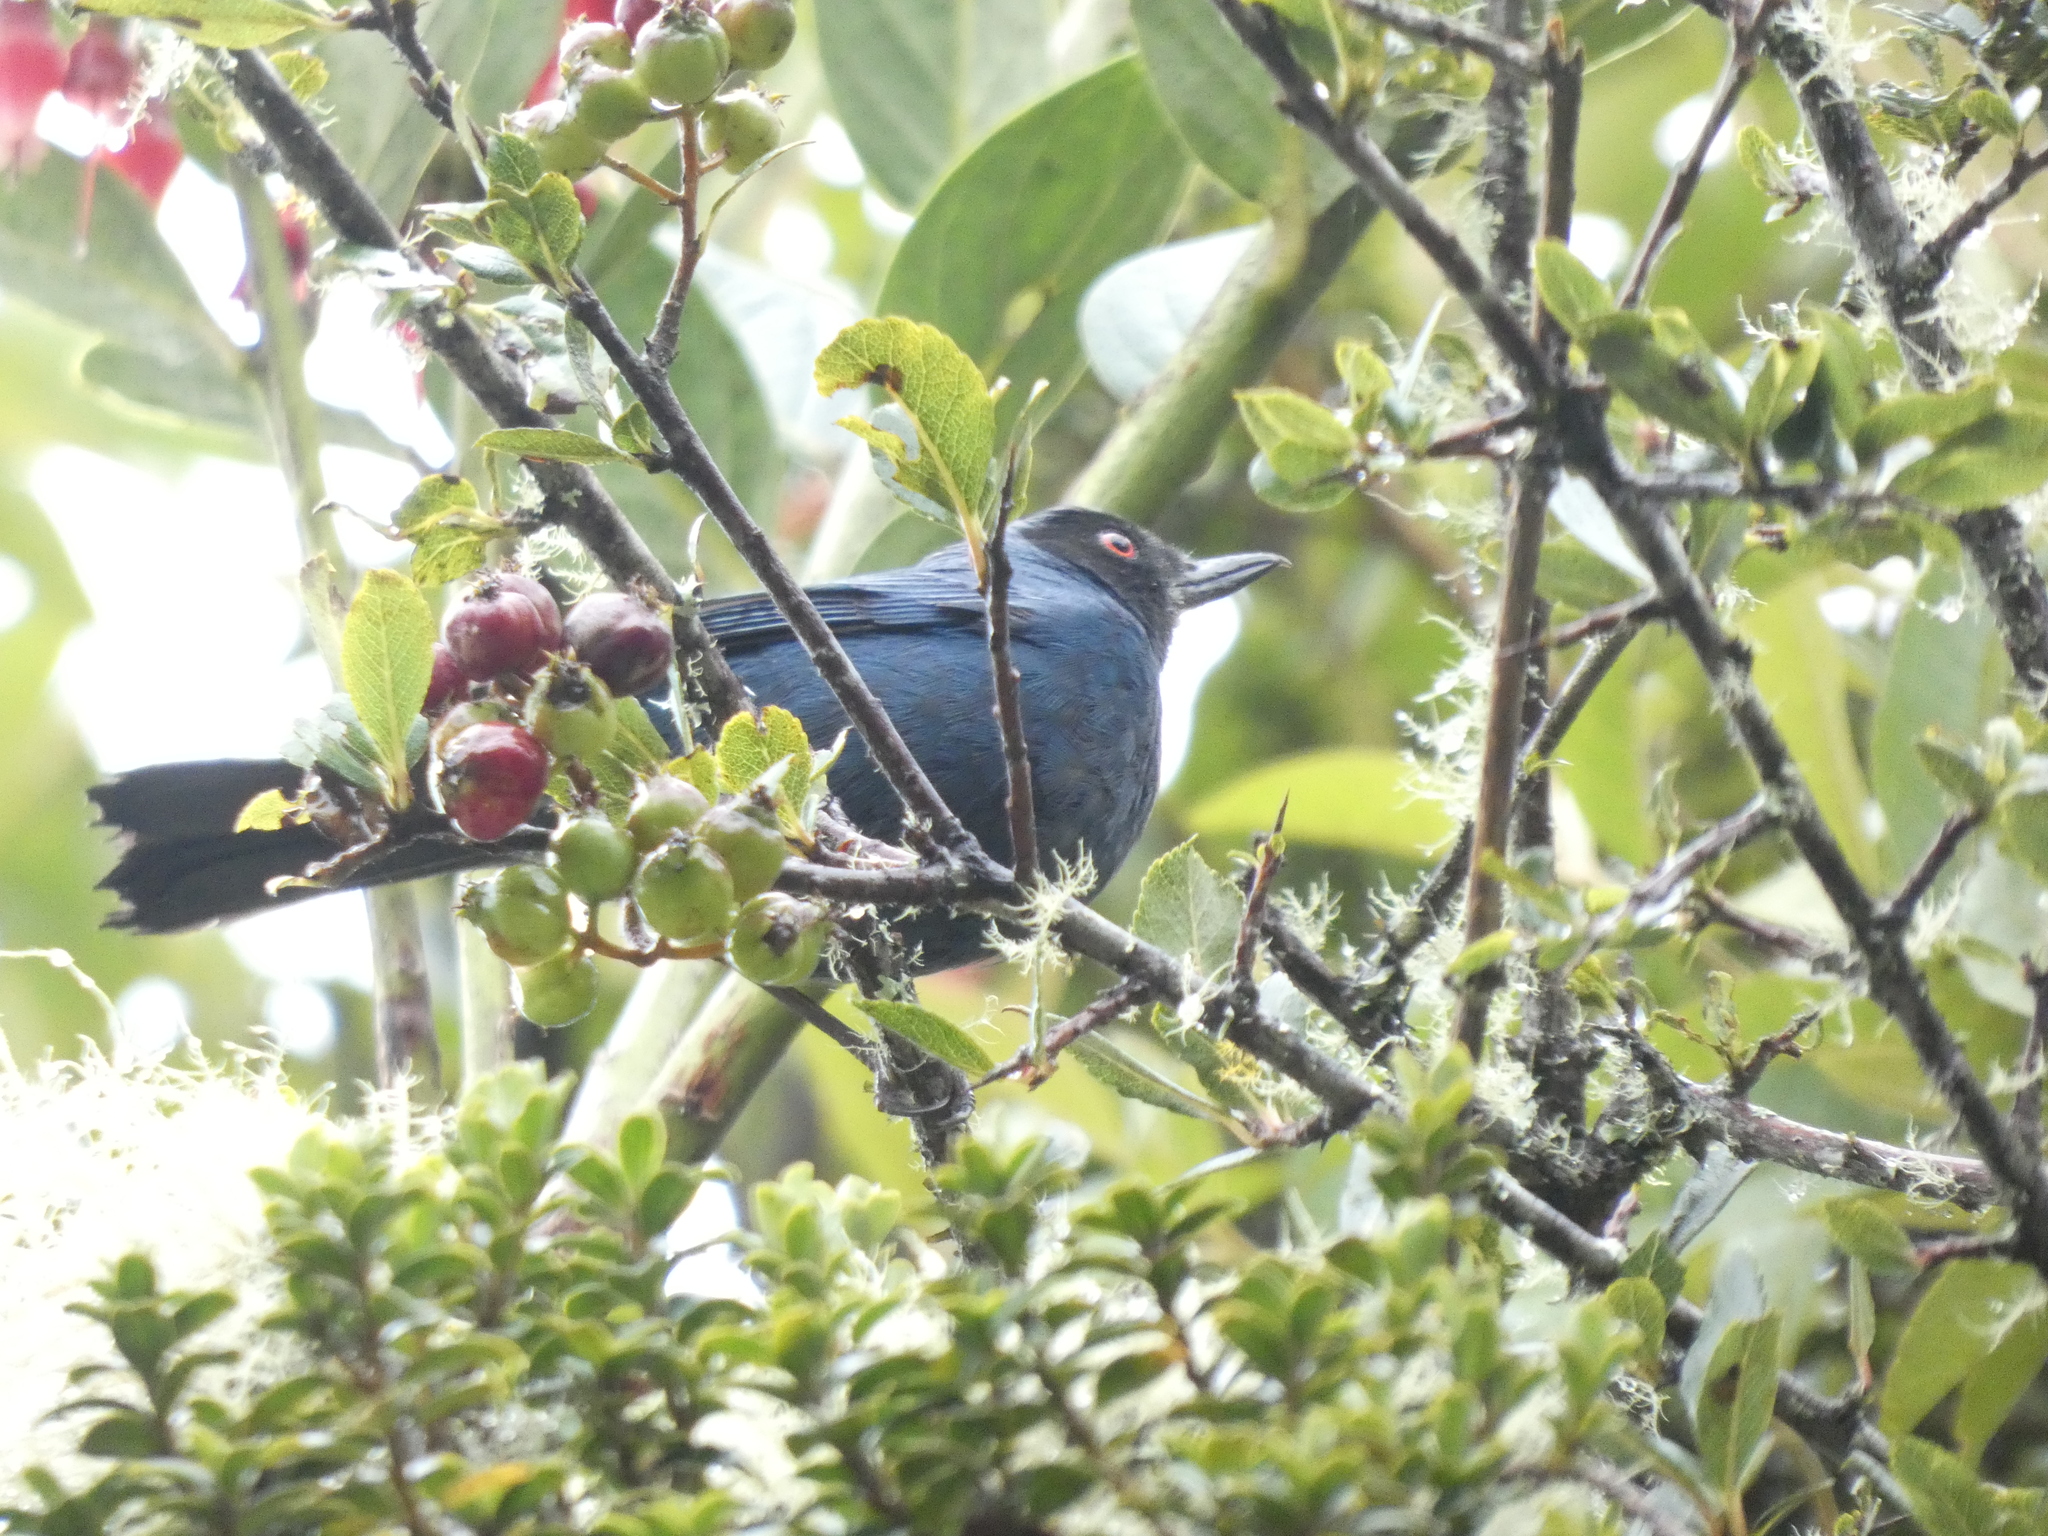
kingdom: Animalia
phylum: Chordata
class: Aves
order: Passeriformes
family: Thraupidae
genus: Diglossa
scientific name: Diglossa cyanea
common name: Masked flowerpiercer
